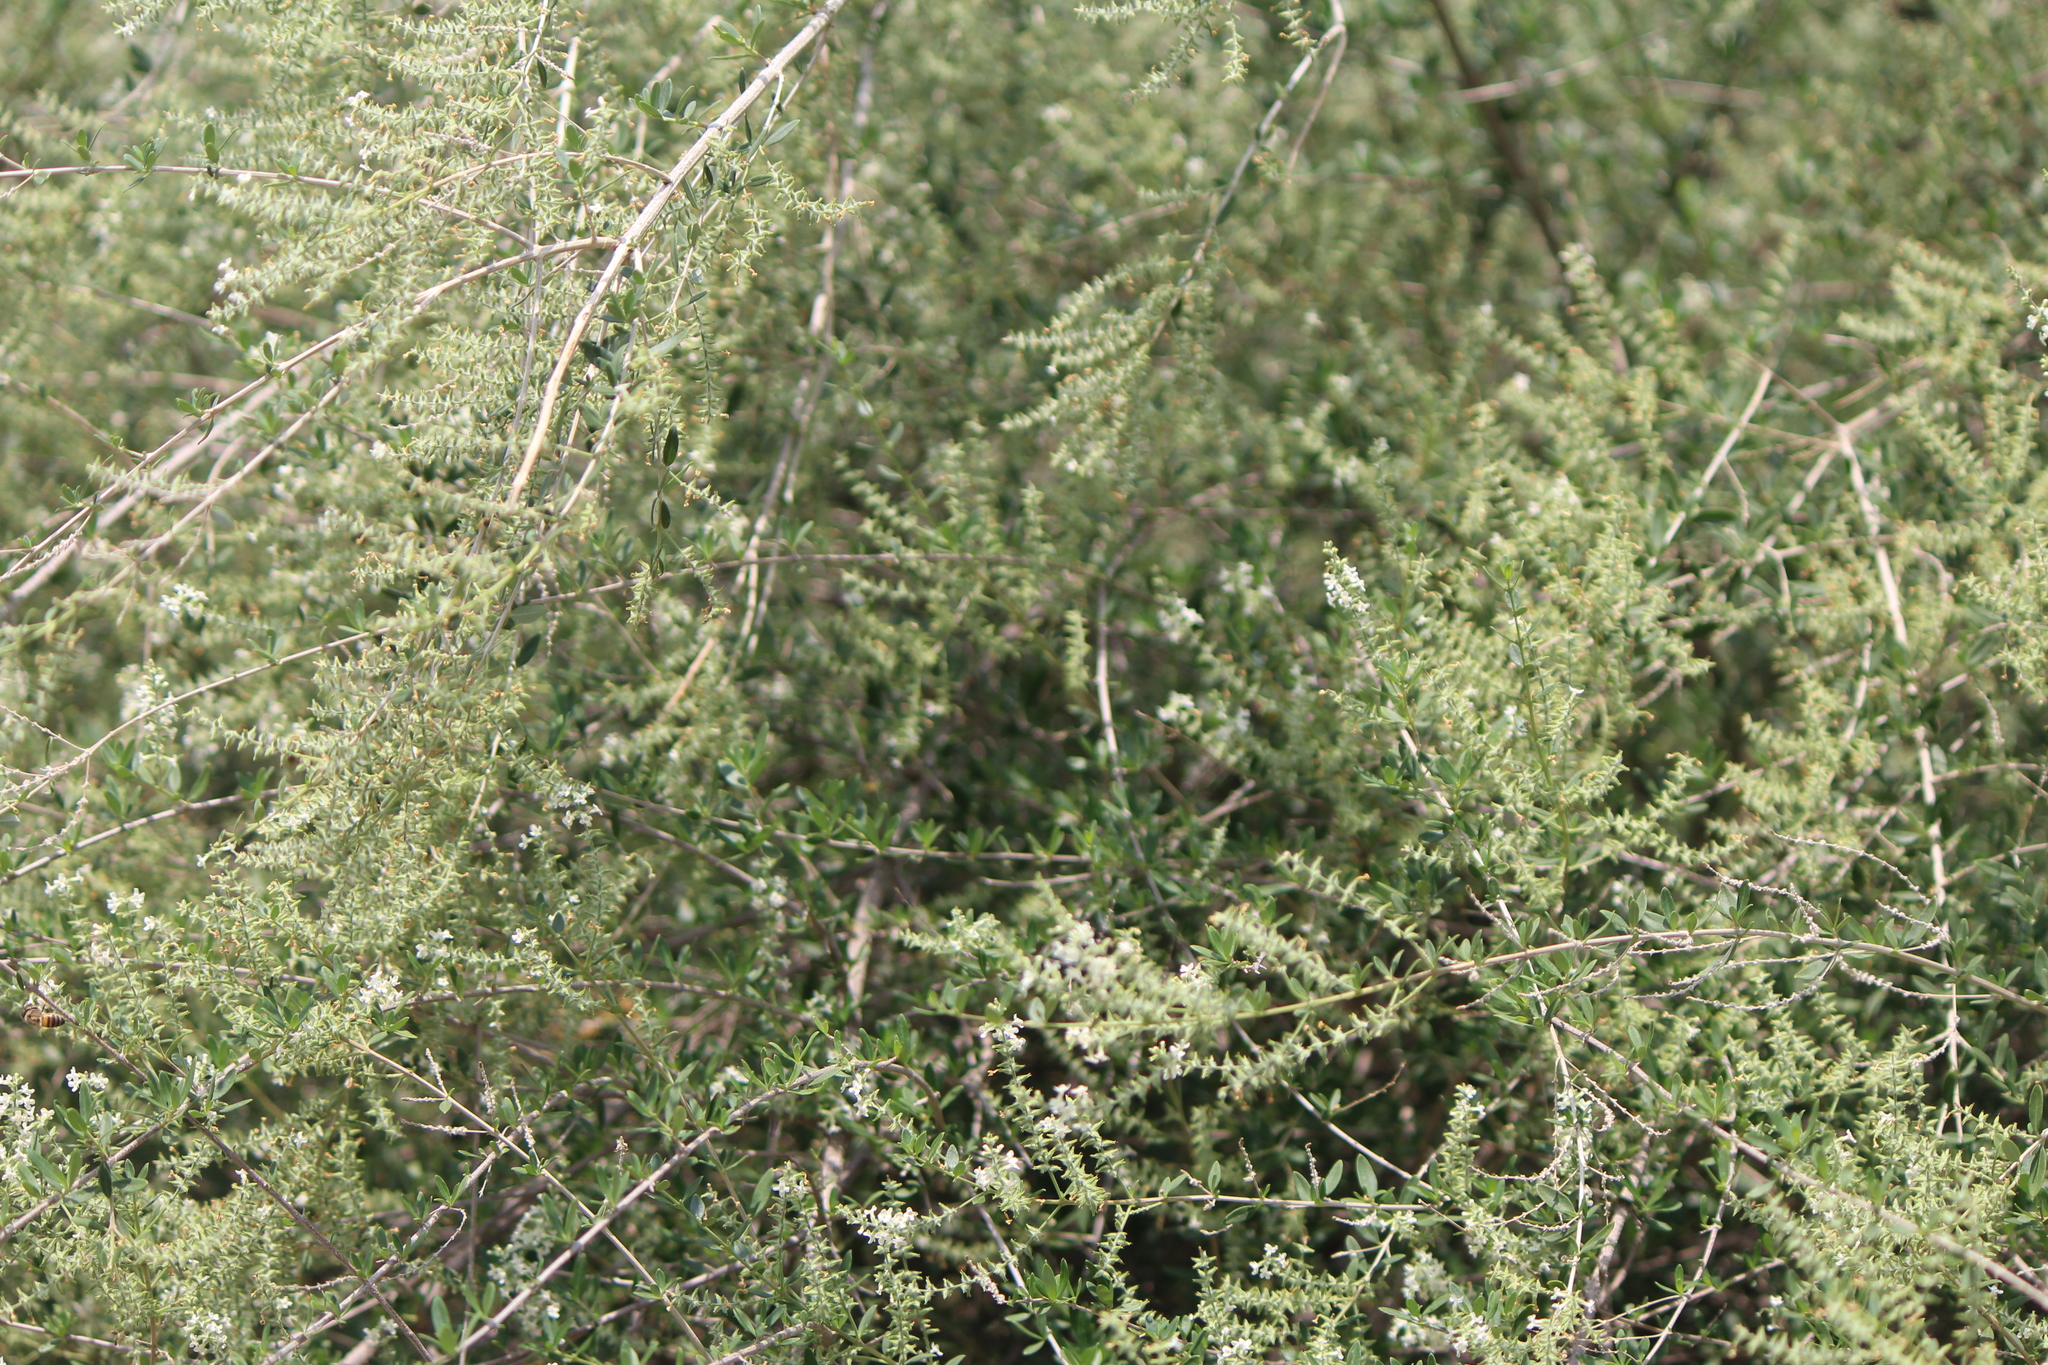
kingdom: Plantae
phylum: Tracheophyta
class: Magnoliopsida
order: Lamiales
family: Verbenaceae
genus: Aloysia
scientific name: Aloysia gratissima
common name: Common bee-brush
